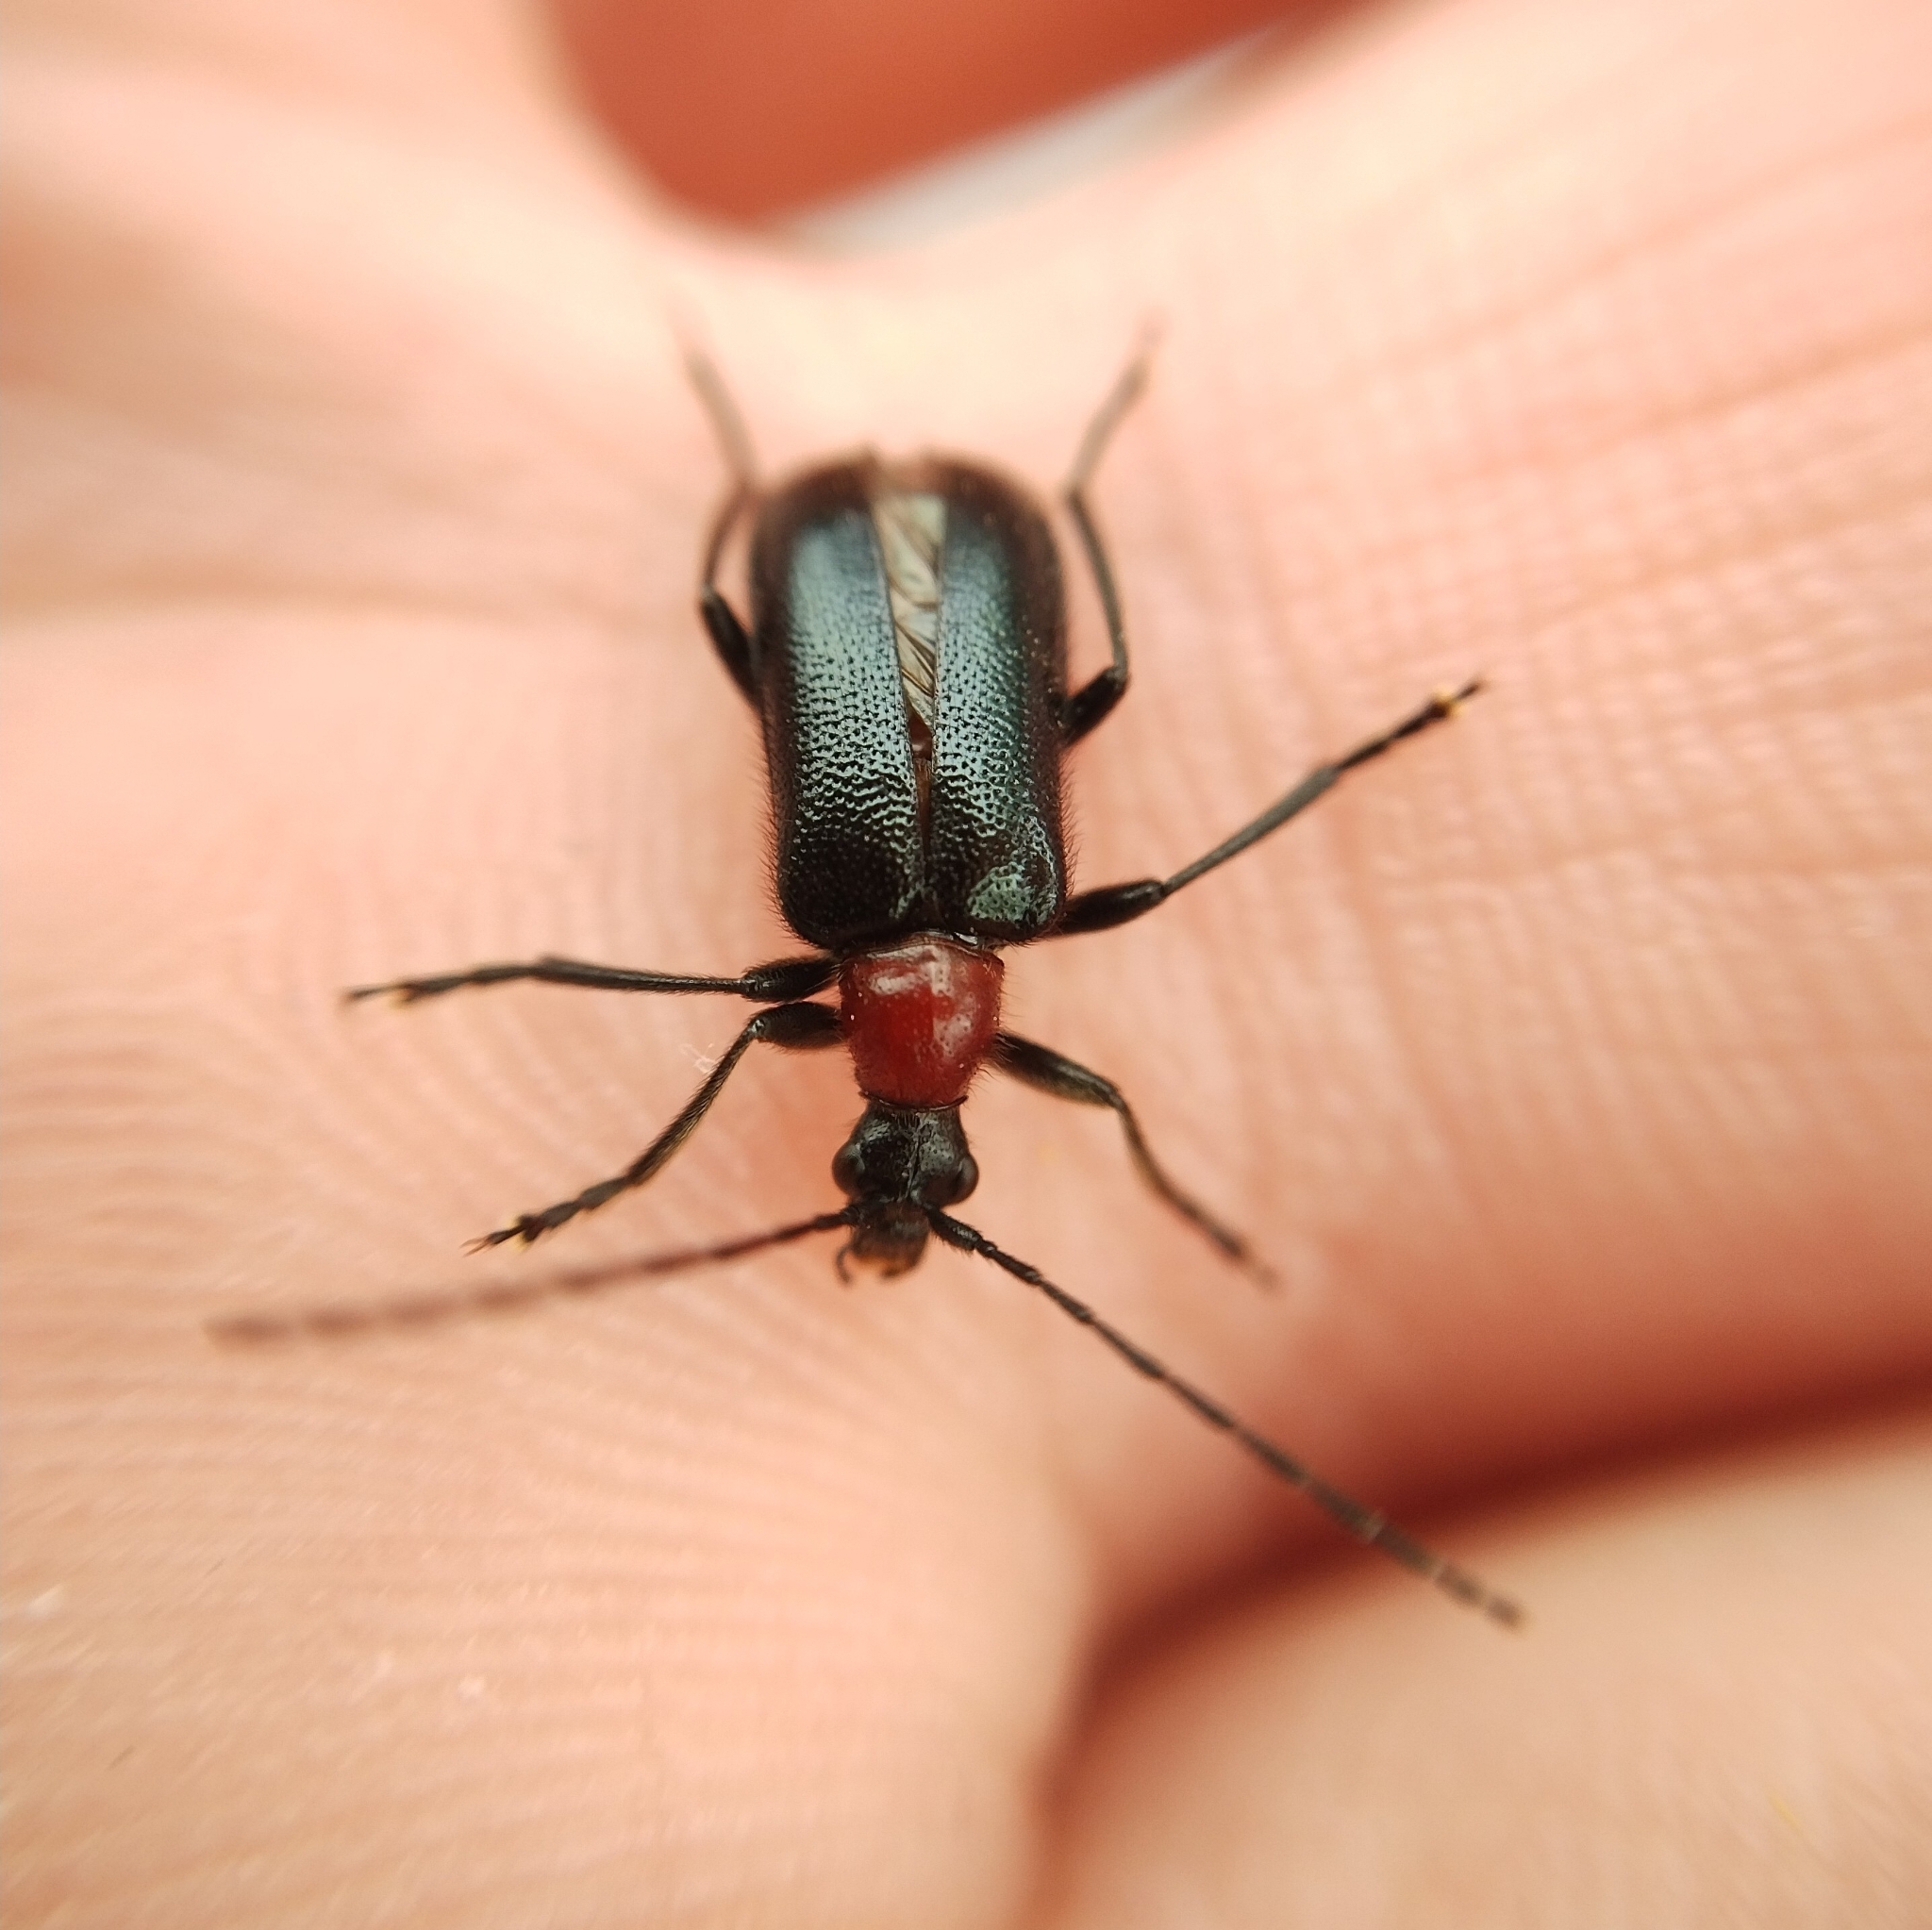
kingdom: Animalia
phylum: Arthropoda
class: Insecta
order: Coleoptera
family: Cerambycidae
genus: Dinoptera
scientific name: Dinoptera collaris
